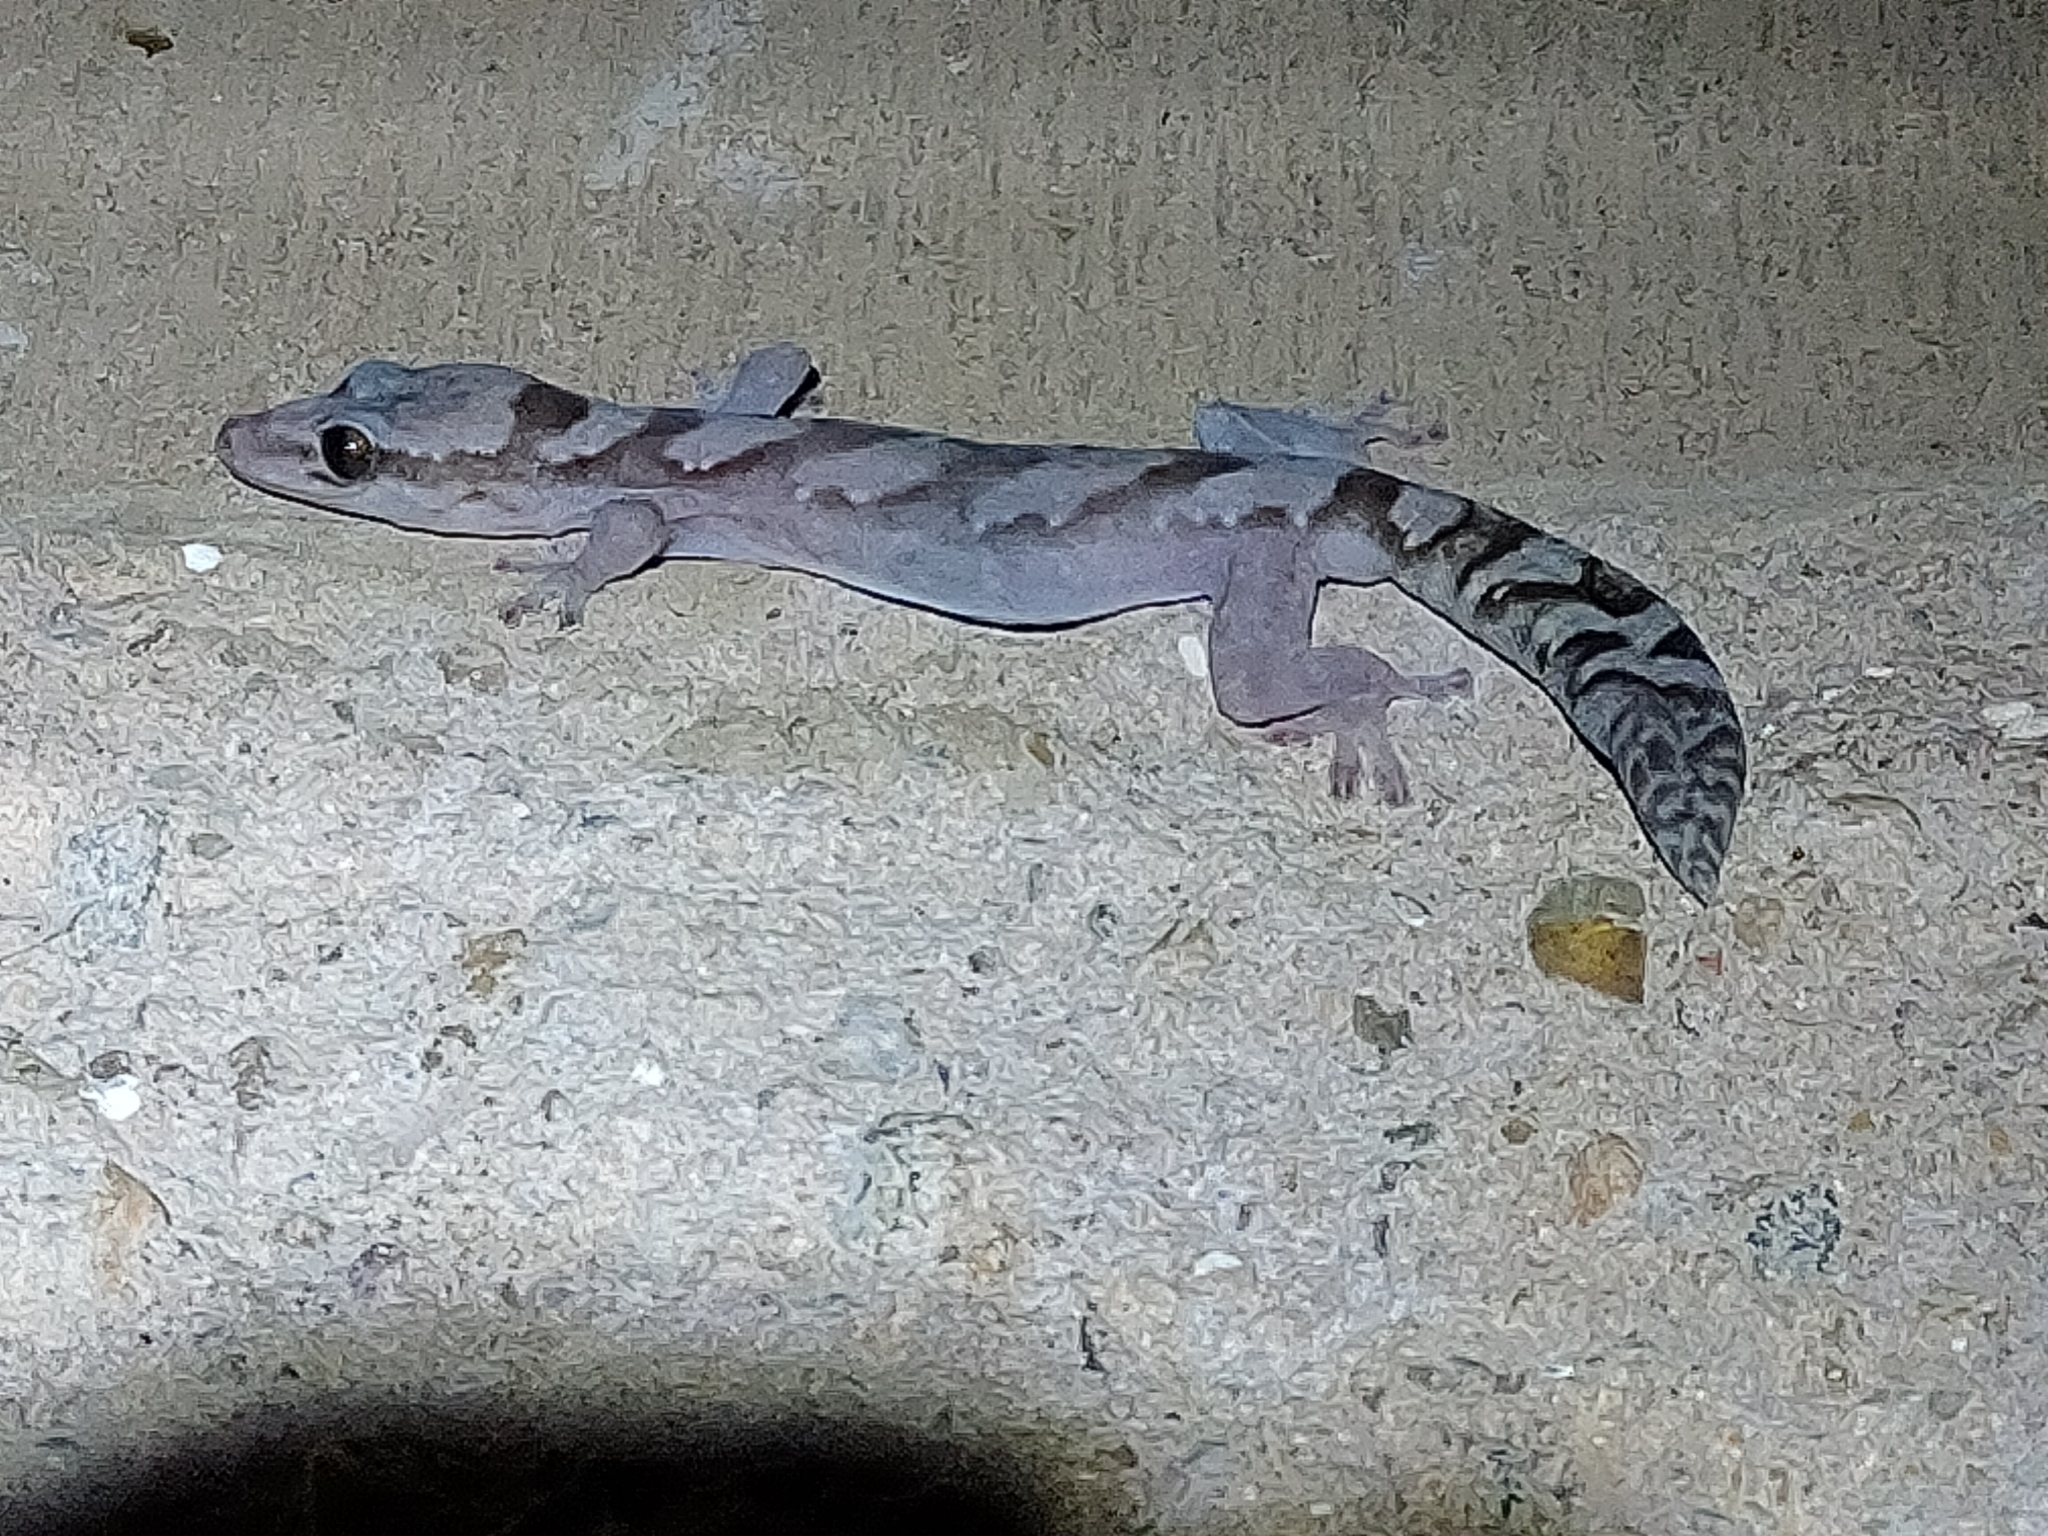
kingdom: Animalia
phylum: Chordata
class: Squamata
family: Diplodactylidae
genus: Nebulifera
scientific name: Nebulifera robusta
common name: Robust gecko
